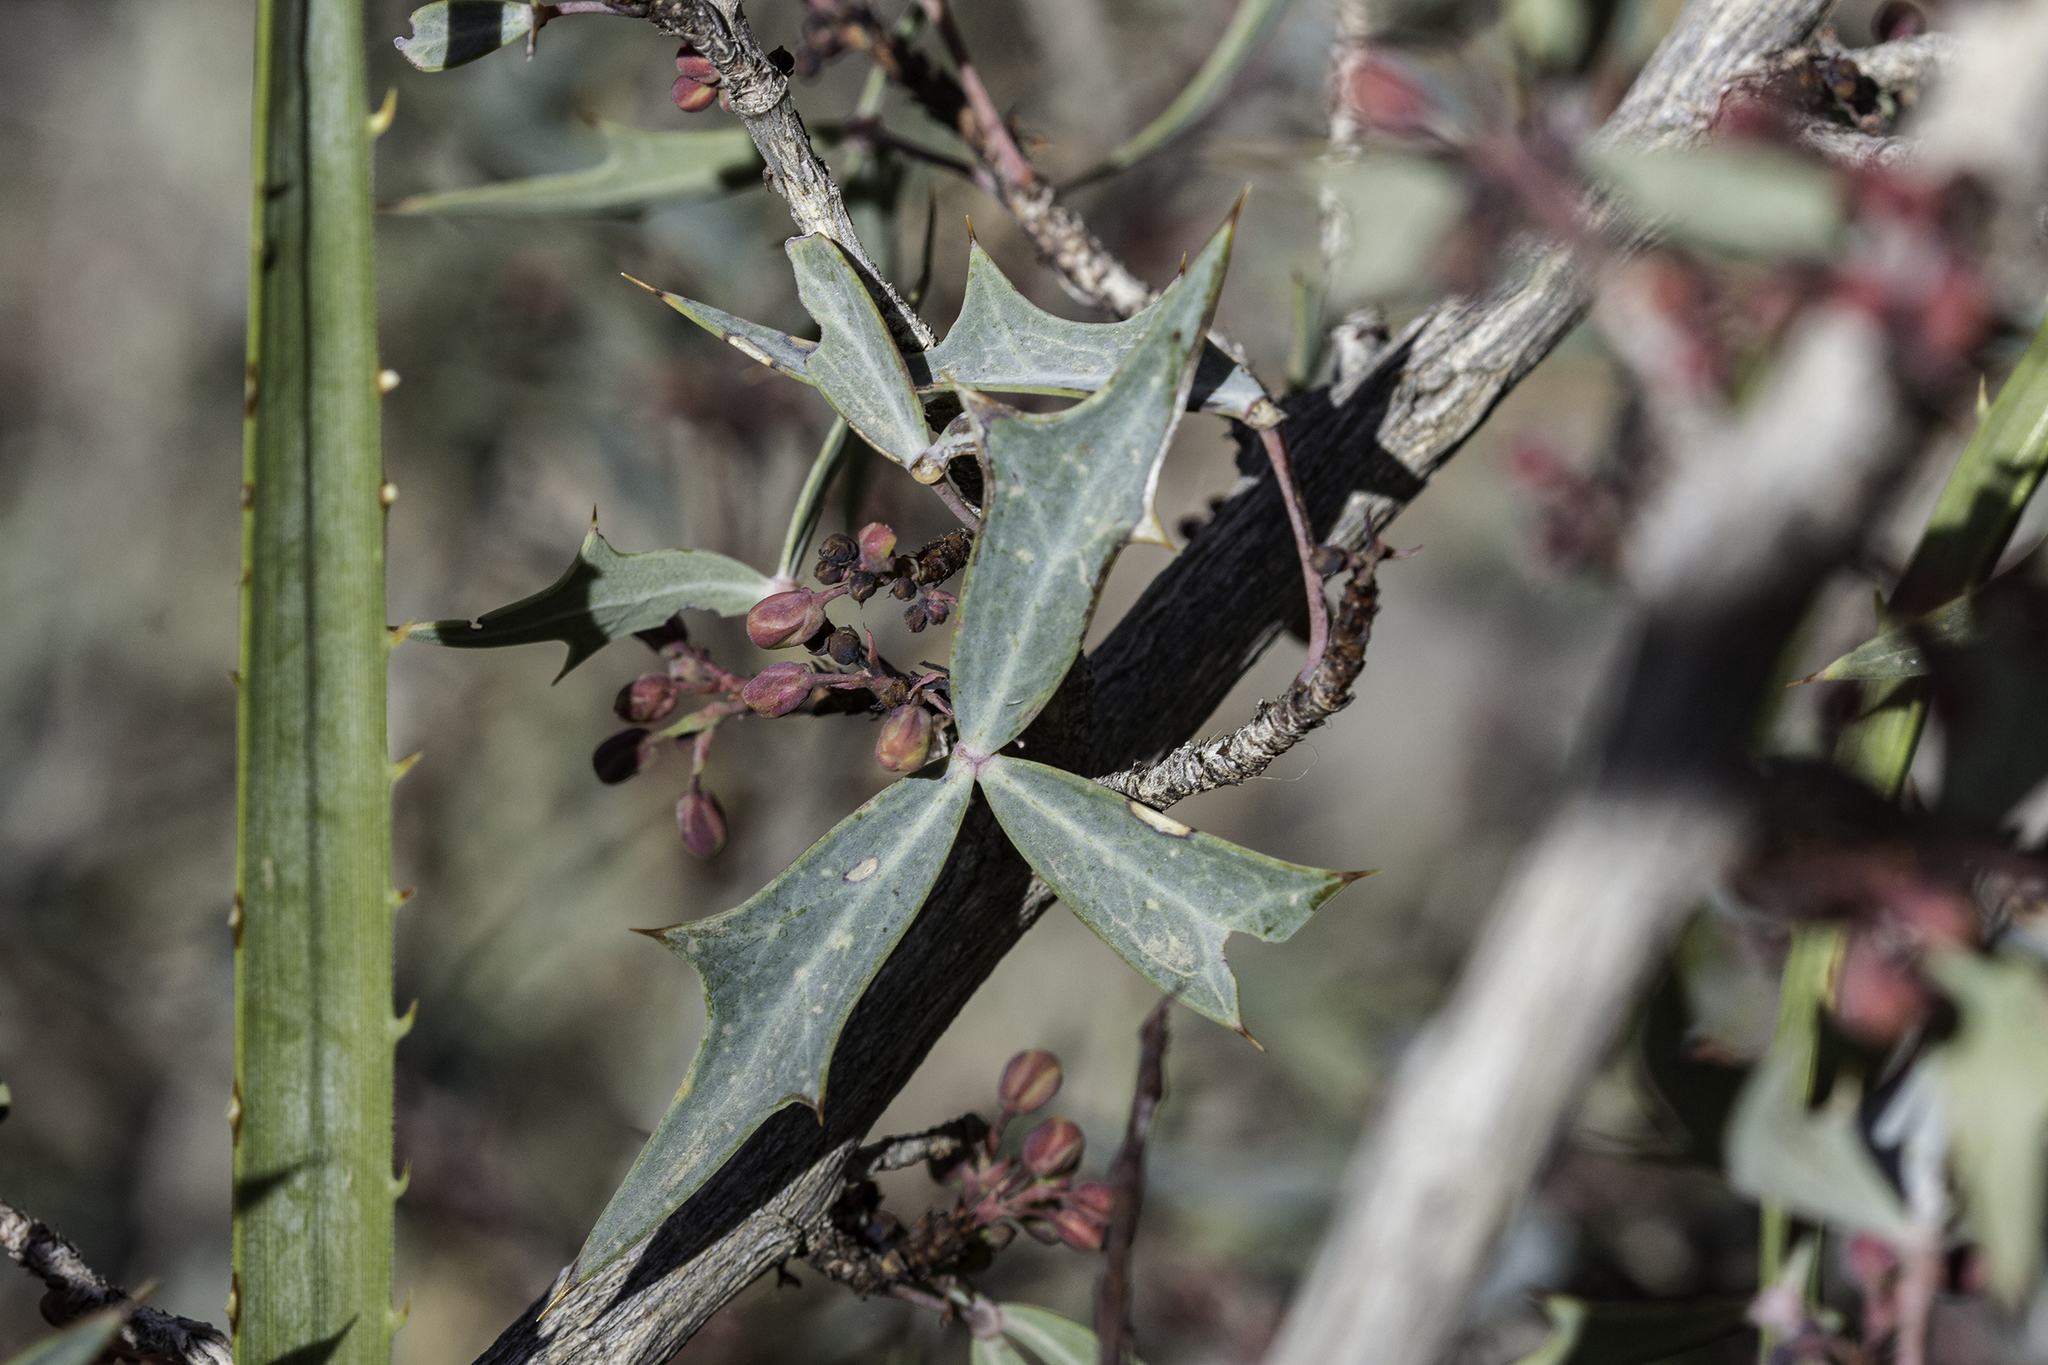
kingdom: Plantae
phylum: Tracheophyta
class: Magnoliopsida
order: Ranunculales
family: Berberidaceae
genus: Alloberberis
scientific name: Alloberberis trifoliolata
